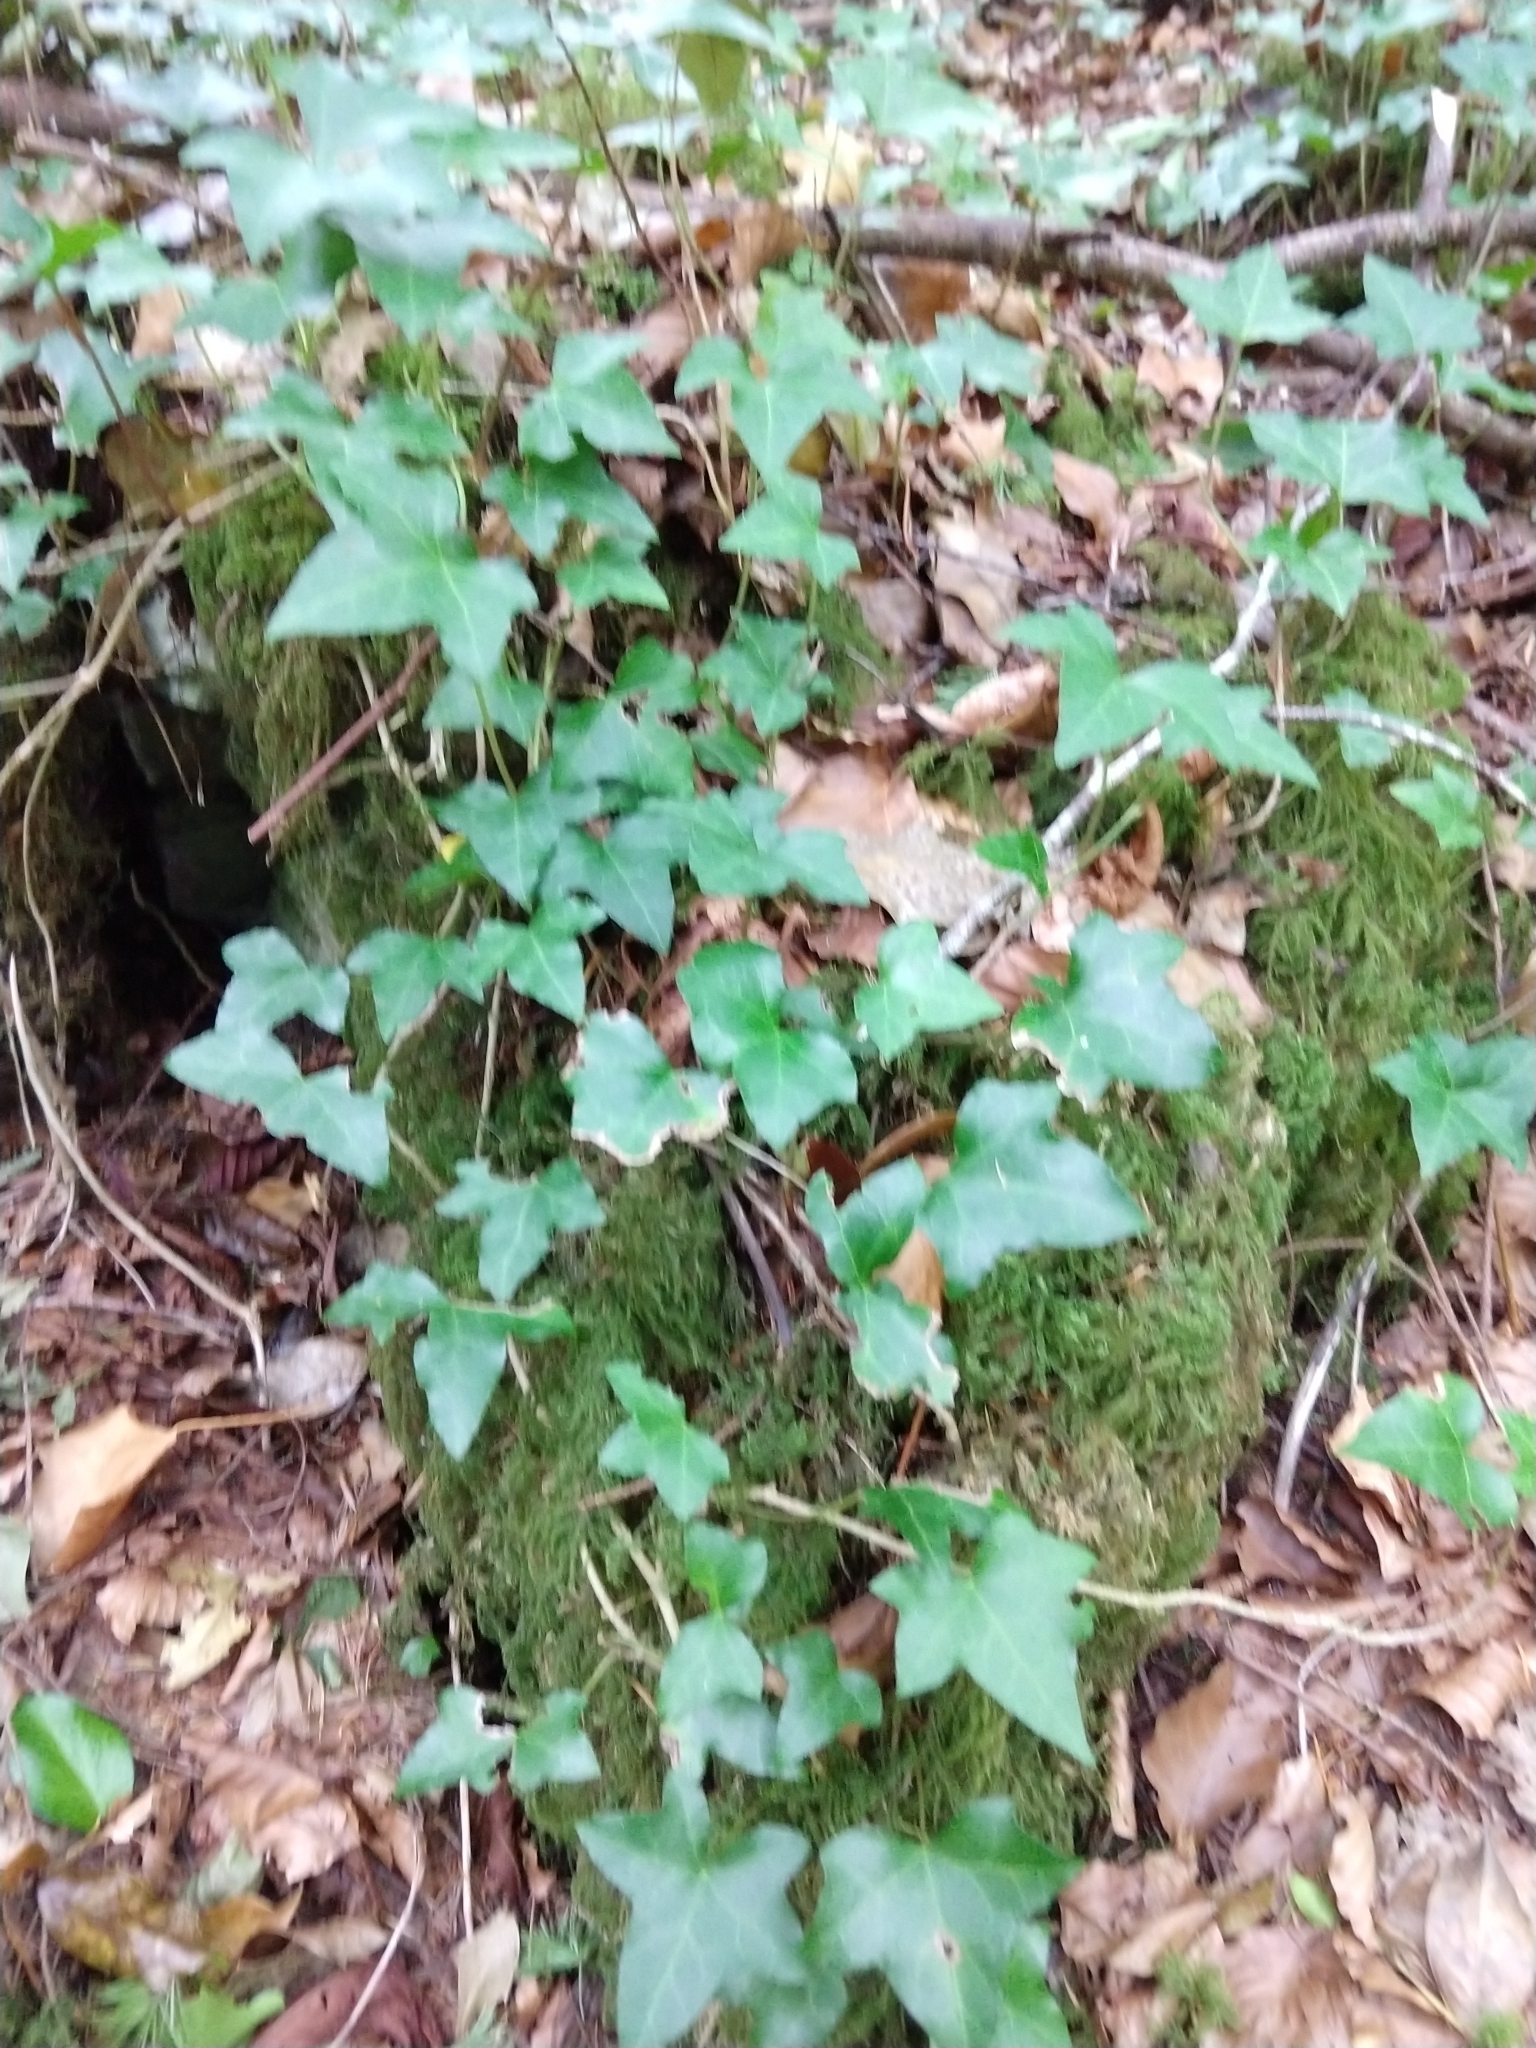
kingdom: Plantae
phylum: Tracheophyta
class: Magnoliopsida
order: Apiales
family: Araliaceae
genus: Hedera
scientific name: Hedera helix
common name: Ivy
